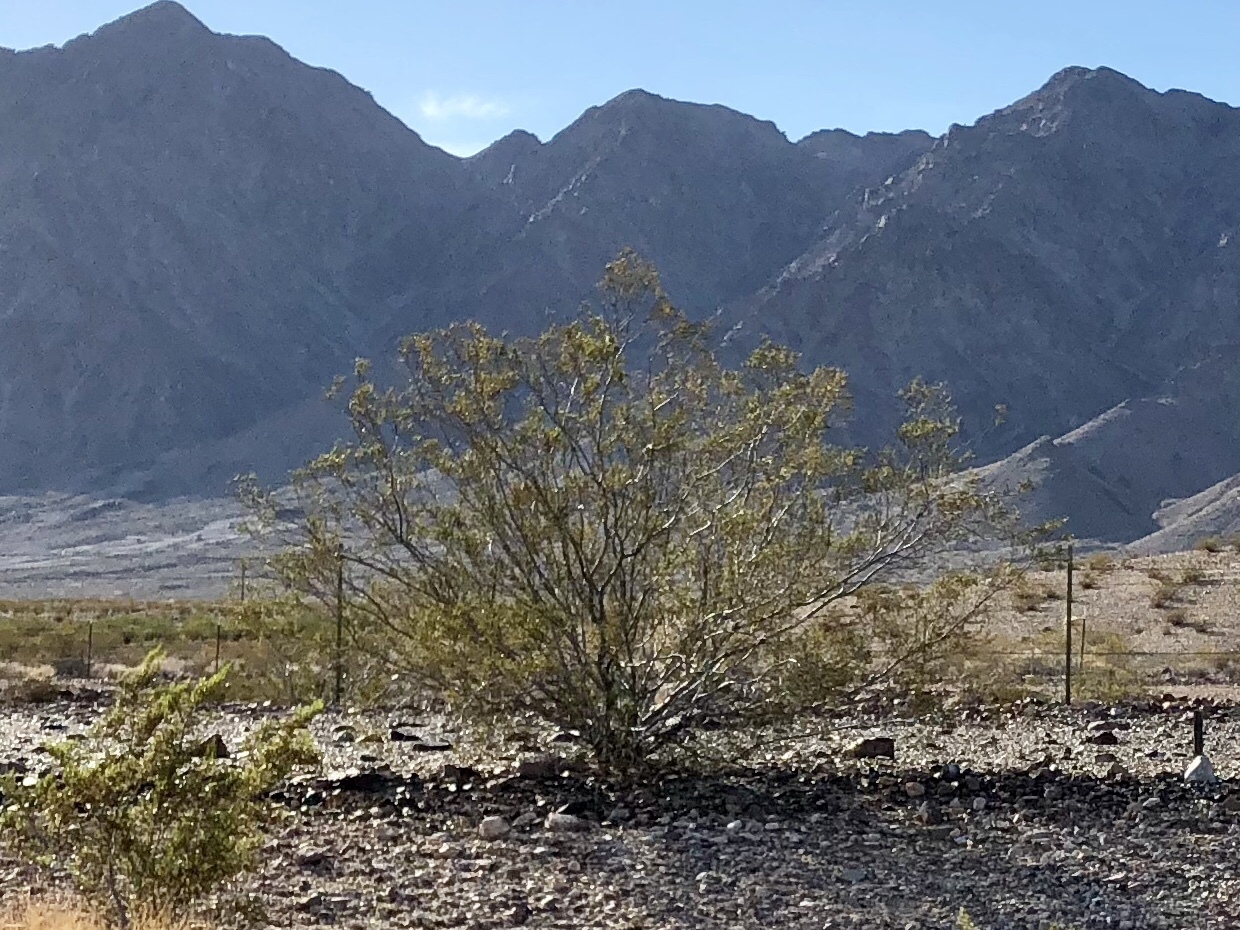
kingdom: Plantae
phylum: Tracheophyta
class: Magnoliopsida
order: Zygophyllales
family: Zygophyllaceae
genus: Larrea
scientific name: Larrea tridentata
